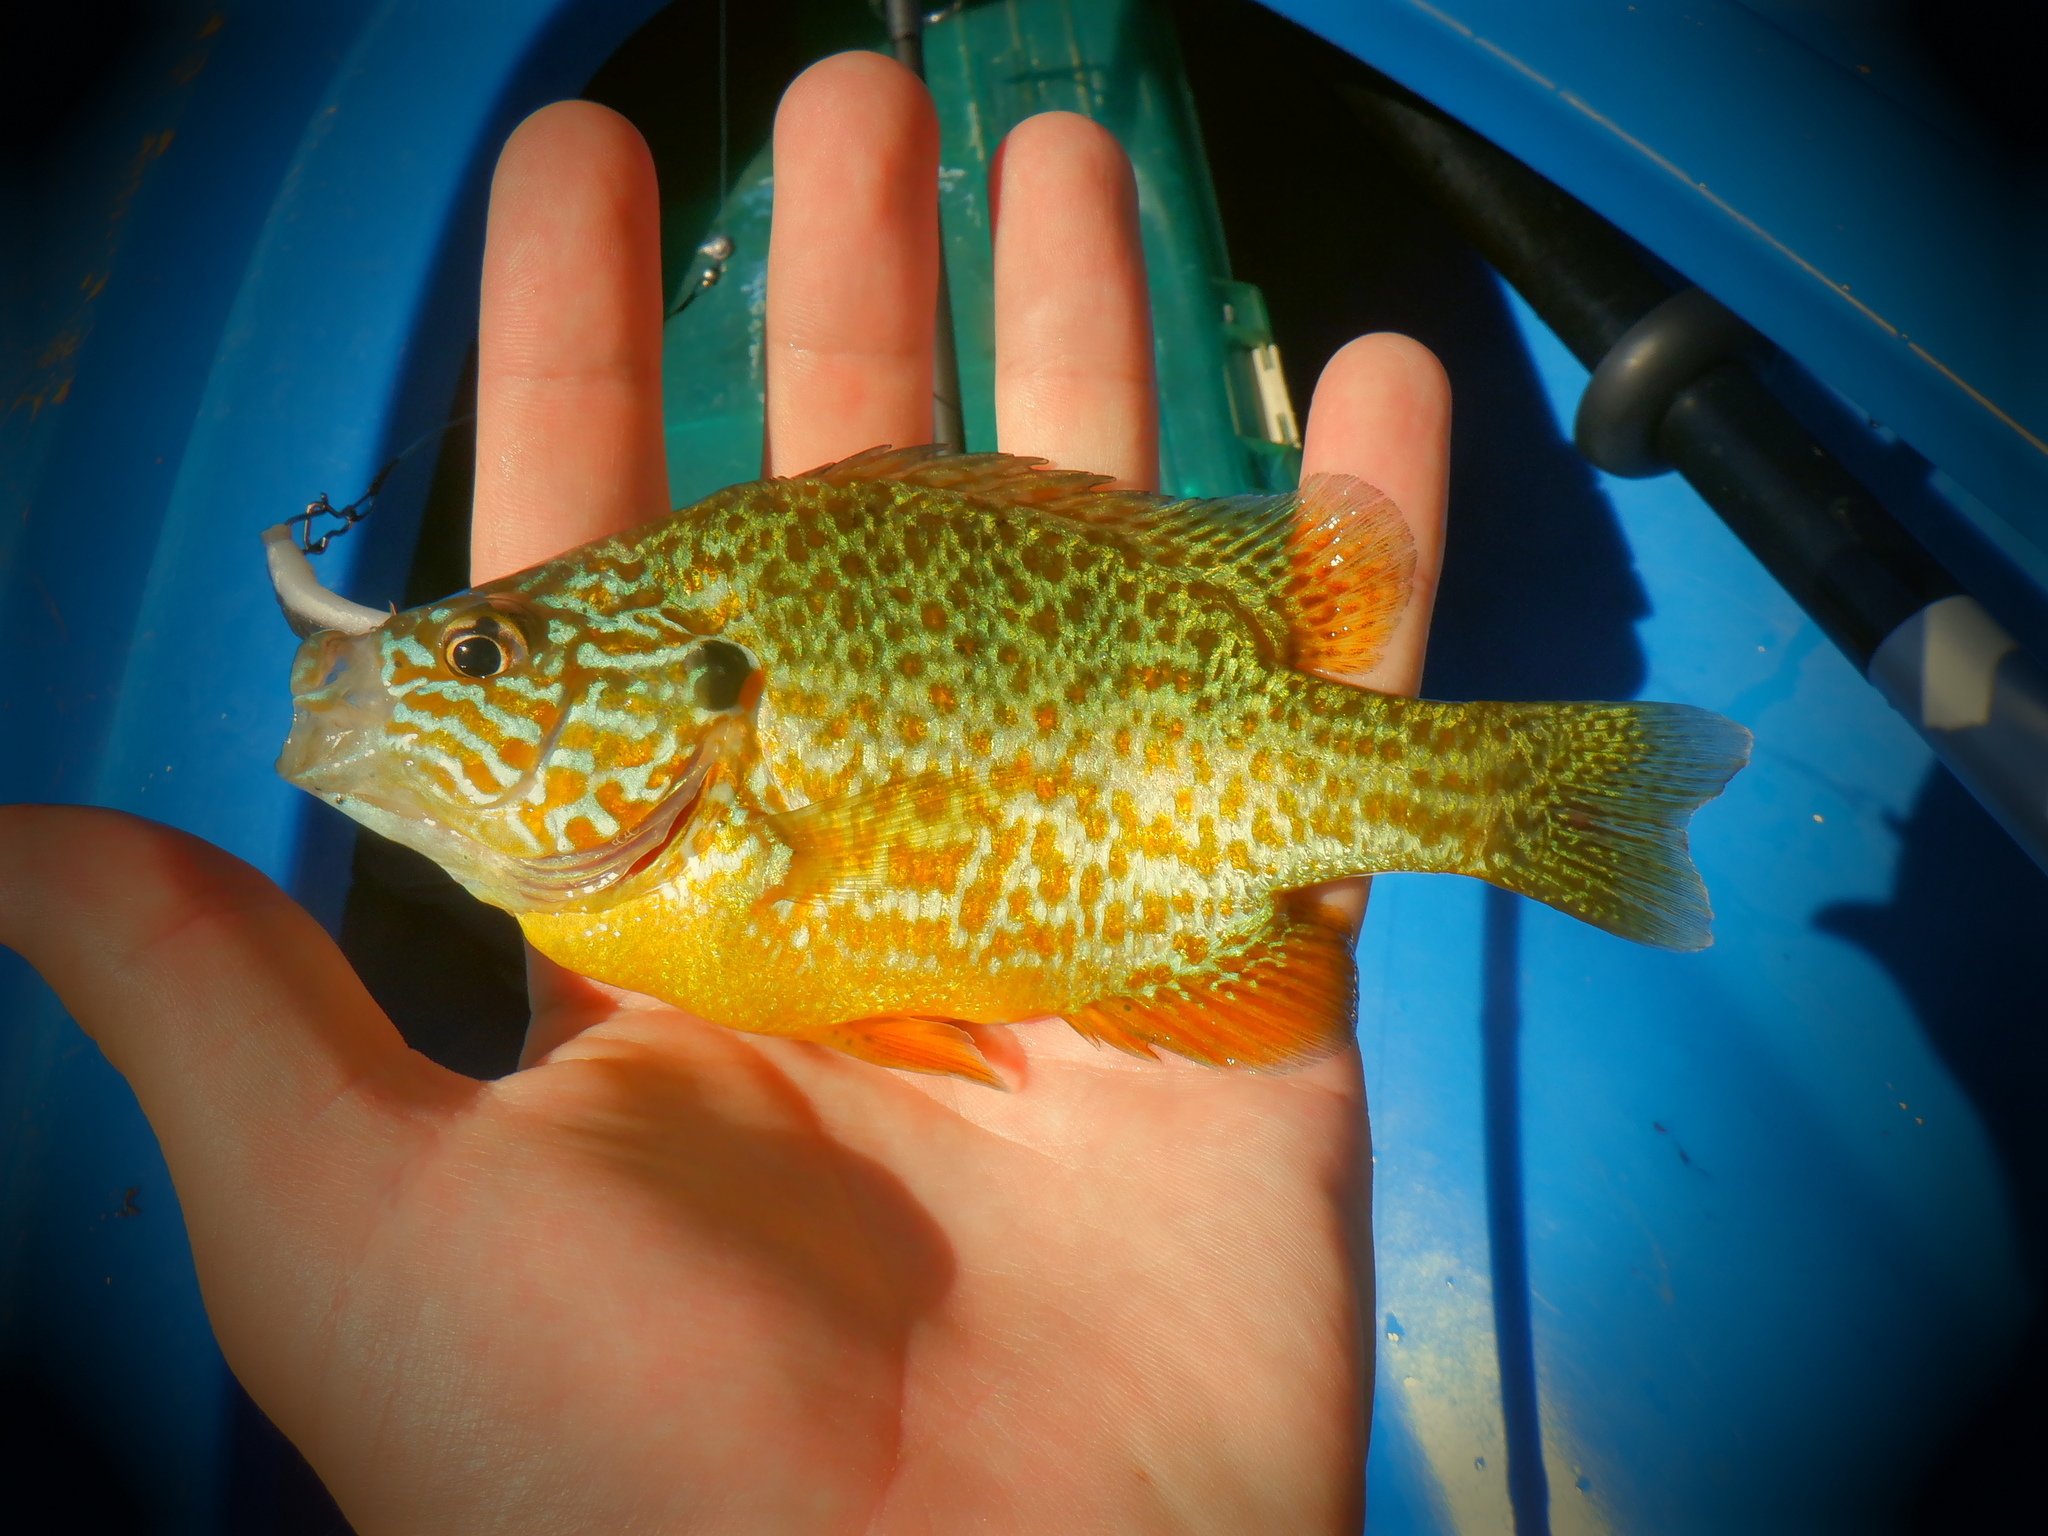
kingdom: Animalia
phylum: Chordata
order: Perciformes
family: Centrarchidae
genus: Lepomis
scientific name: Lepomis gibbosus
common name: Pumpkinseed
